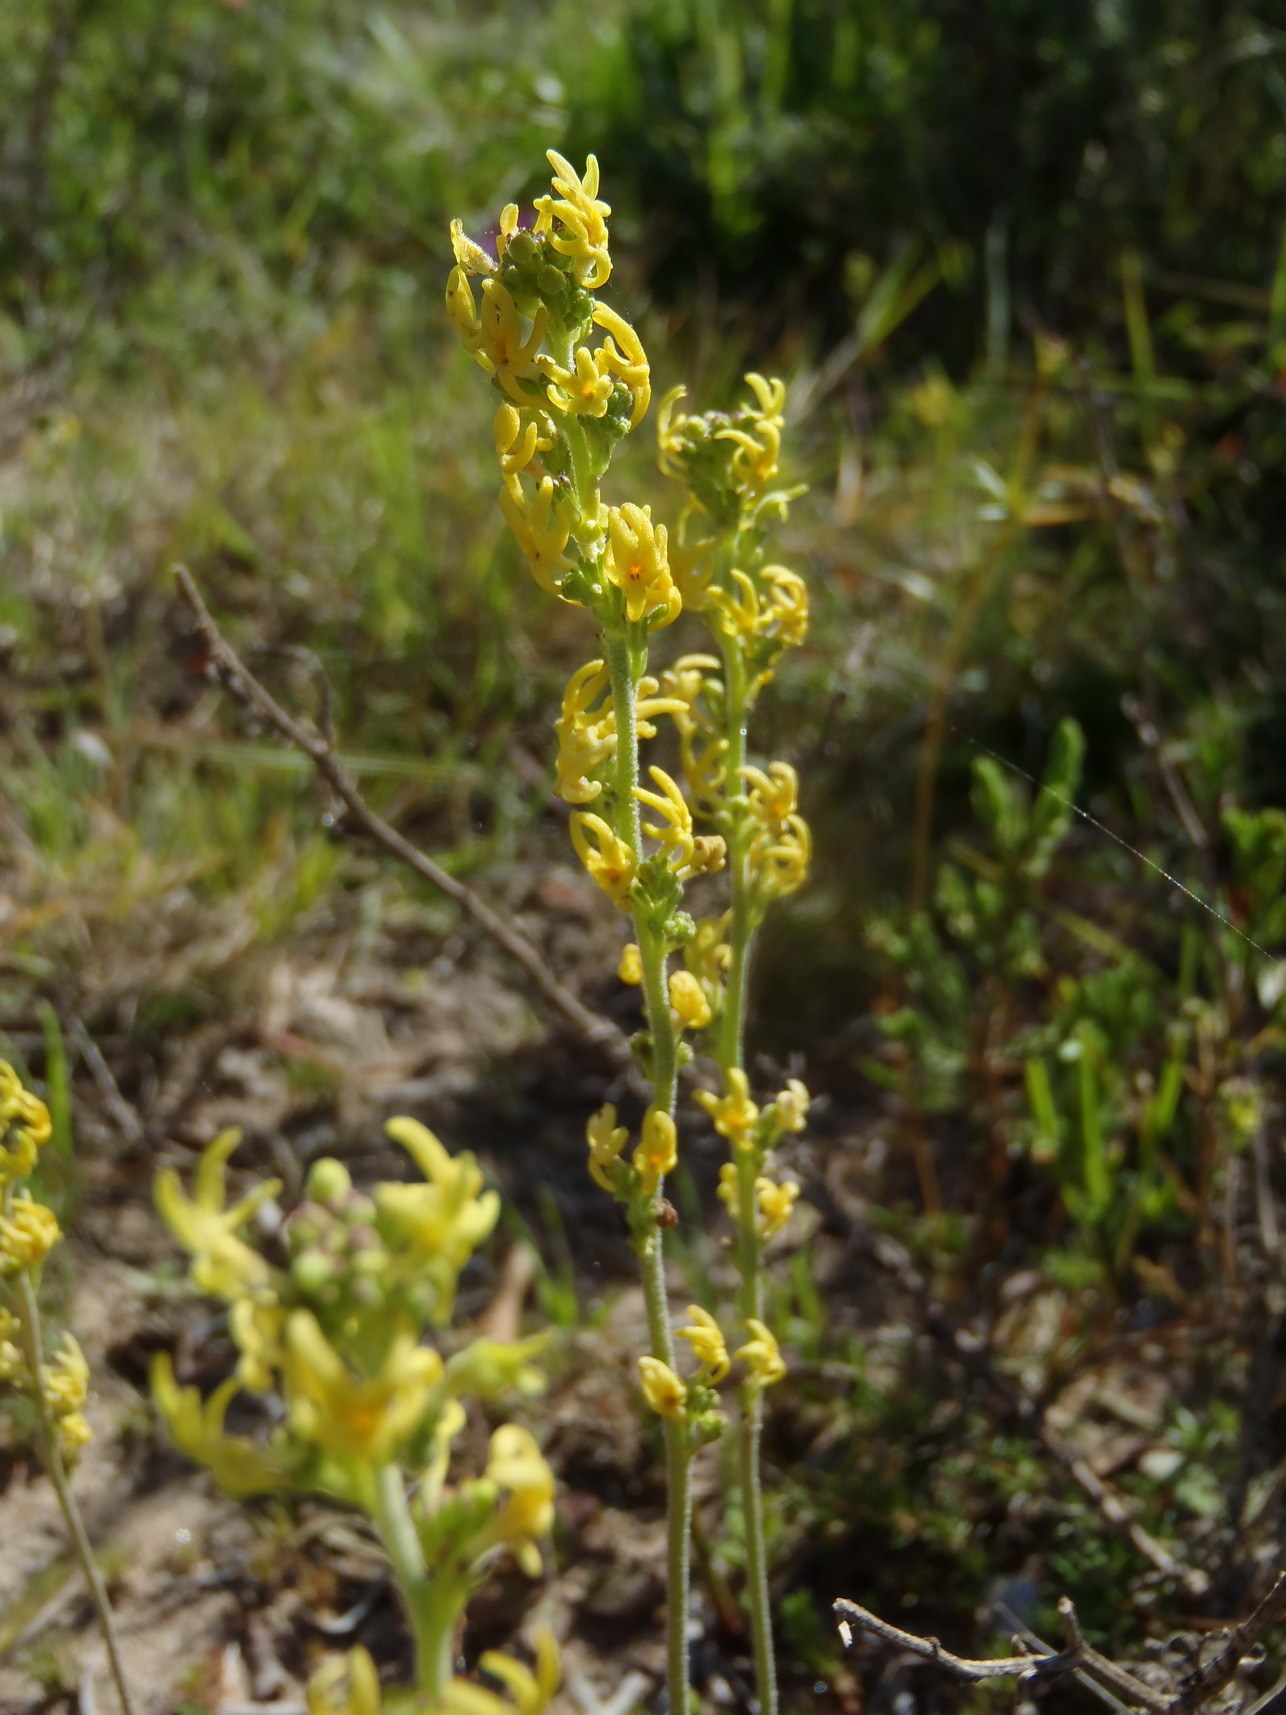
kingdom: Plantae
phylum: Tracheophyta
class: Magnoliopsida
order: Lamiales
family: Scrophulariaceae
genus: Manulea
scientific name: Manulea obovata
